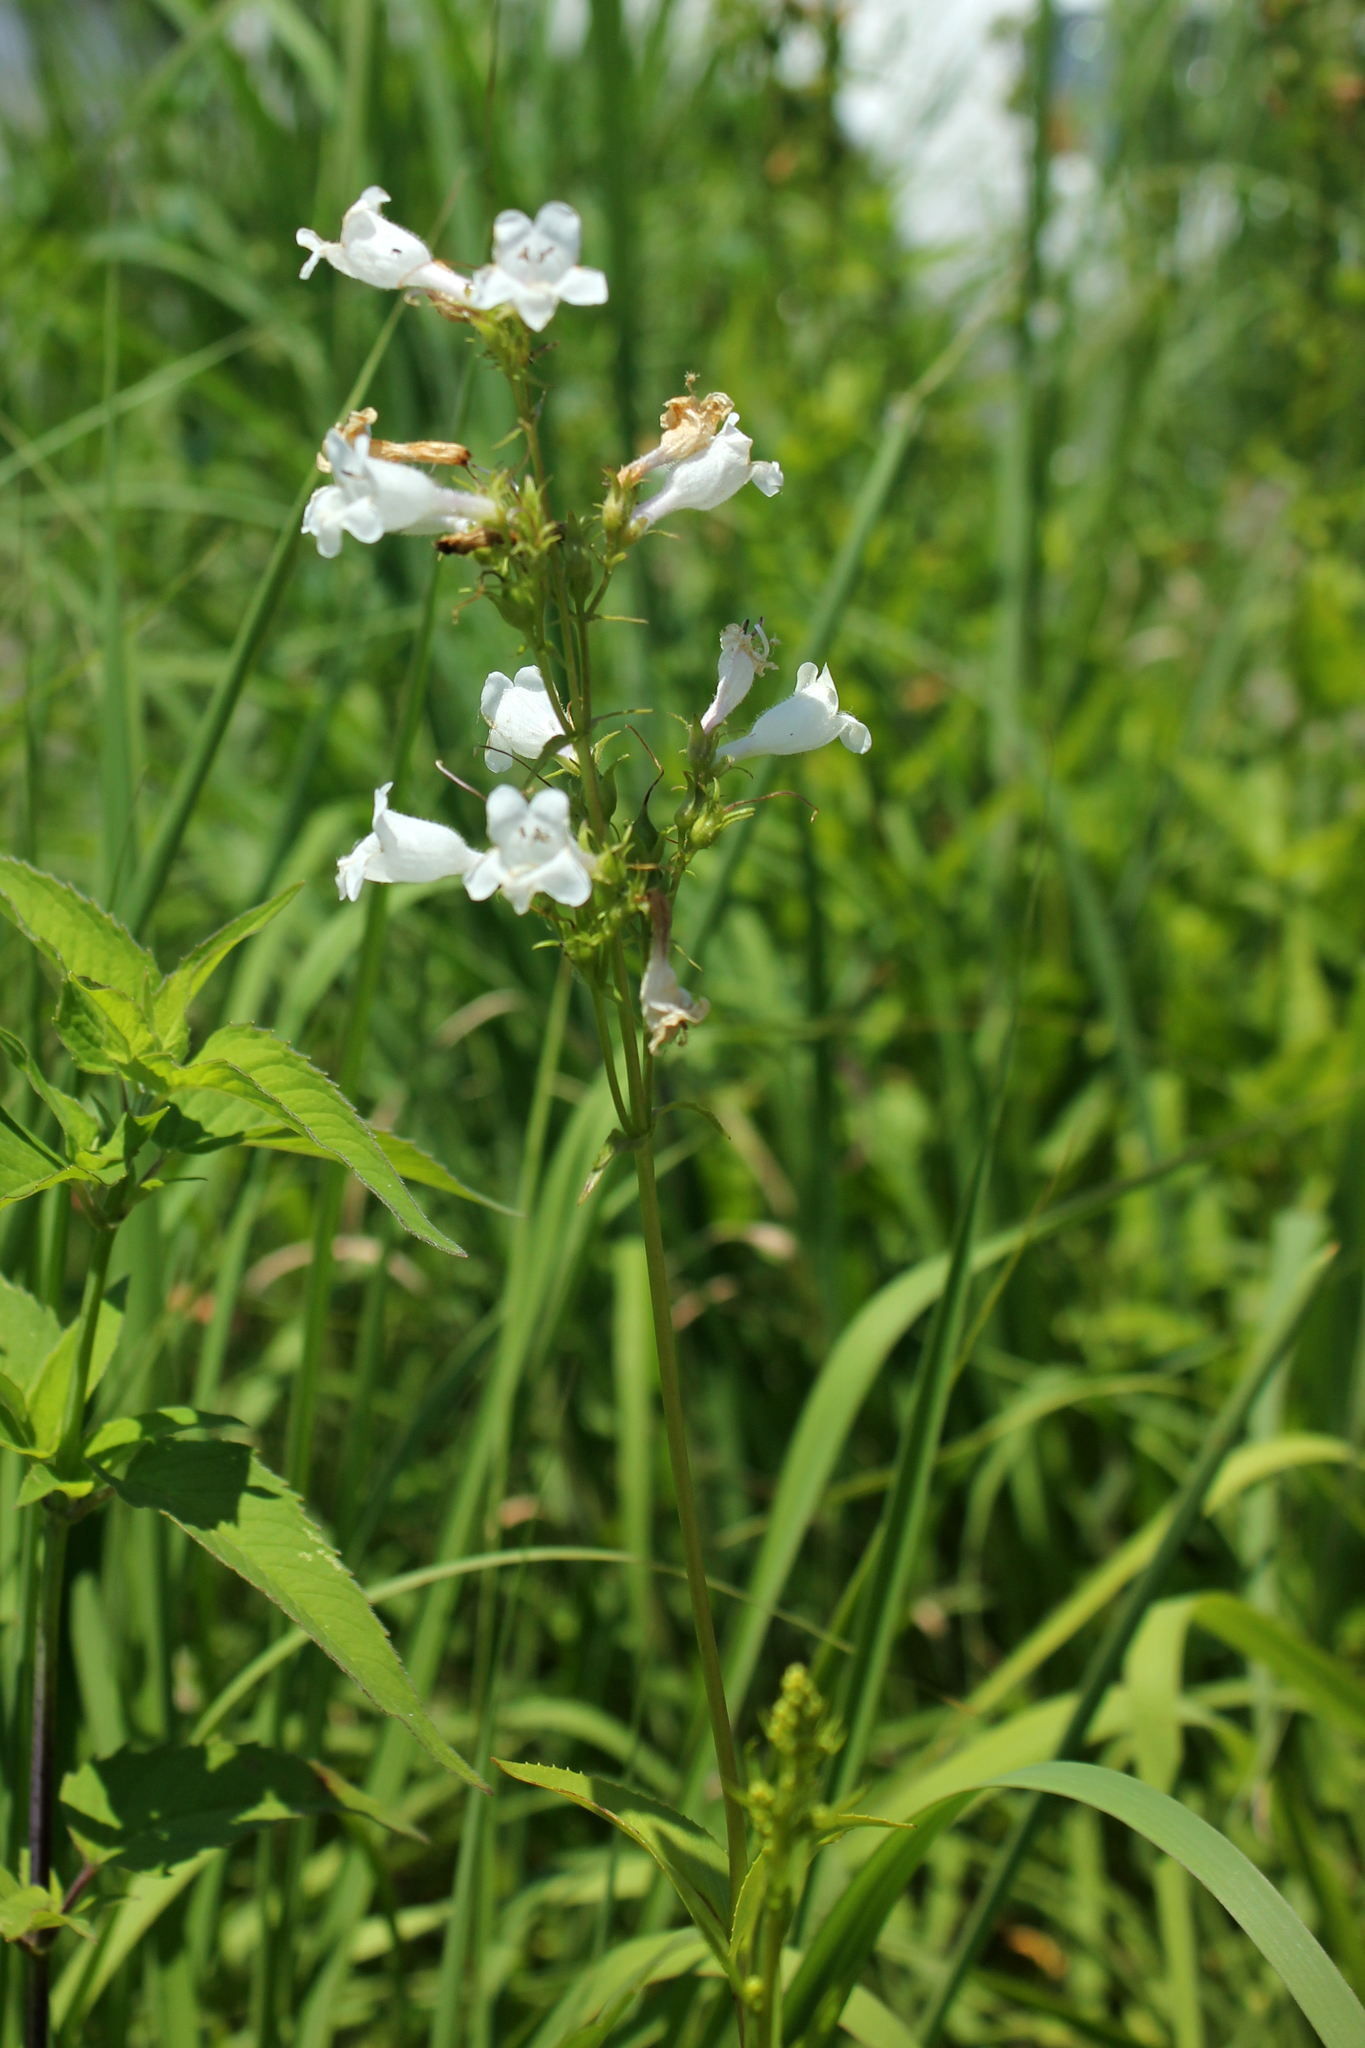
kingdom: Plantae
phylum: Tracheophyta
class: Magnoliopsida
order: Lamiales
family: Plantaginaceae
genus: Penstemon
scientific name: Penstemon digitalis
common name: Foxglove beardtongue
